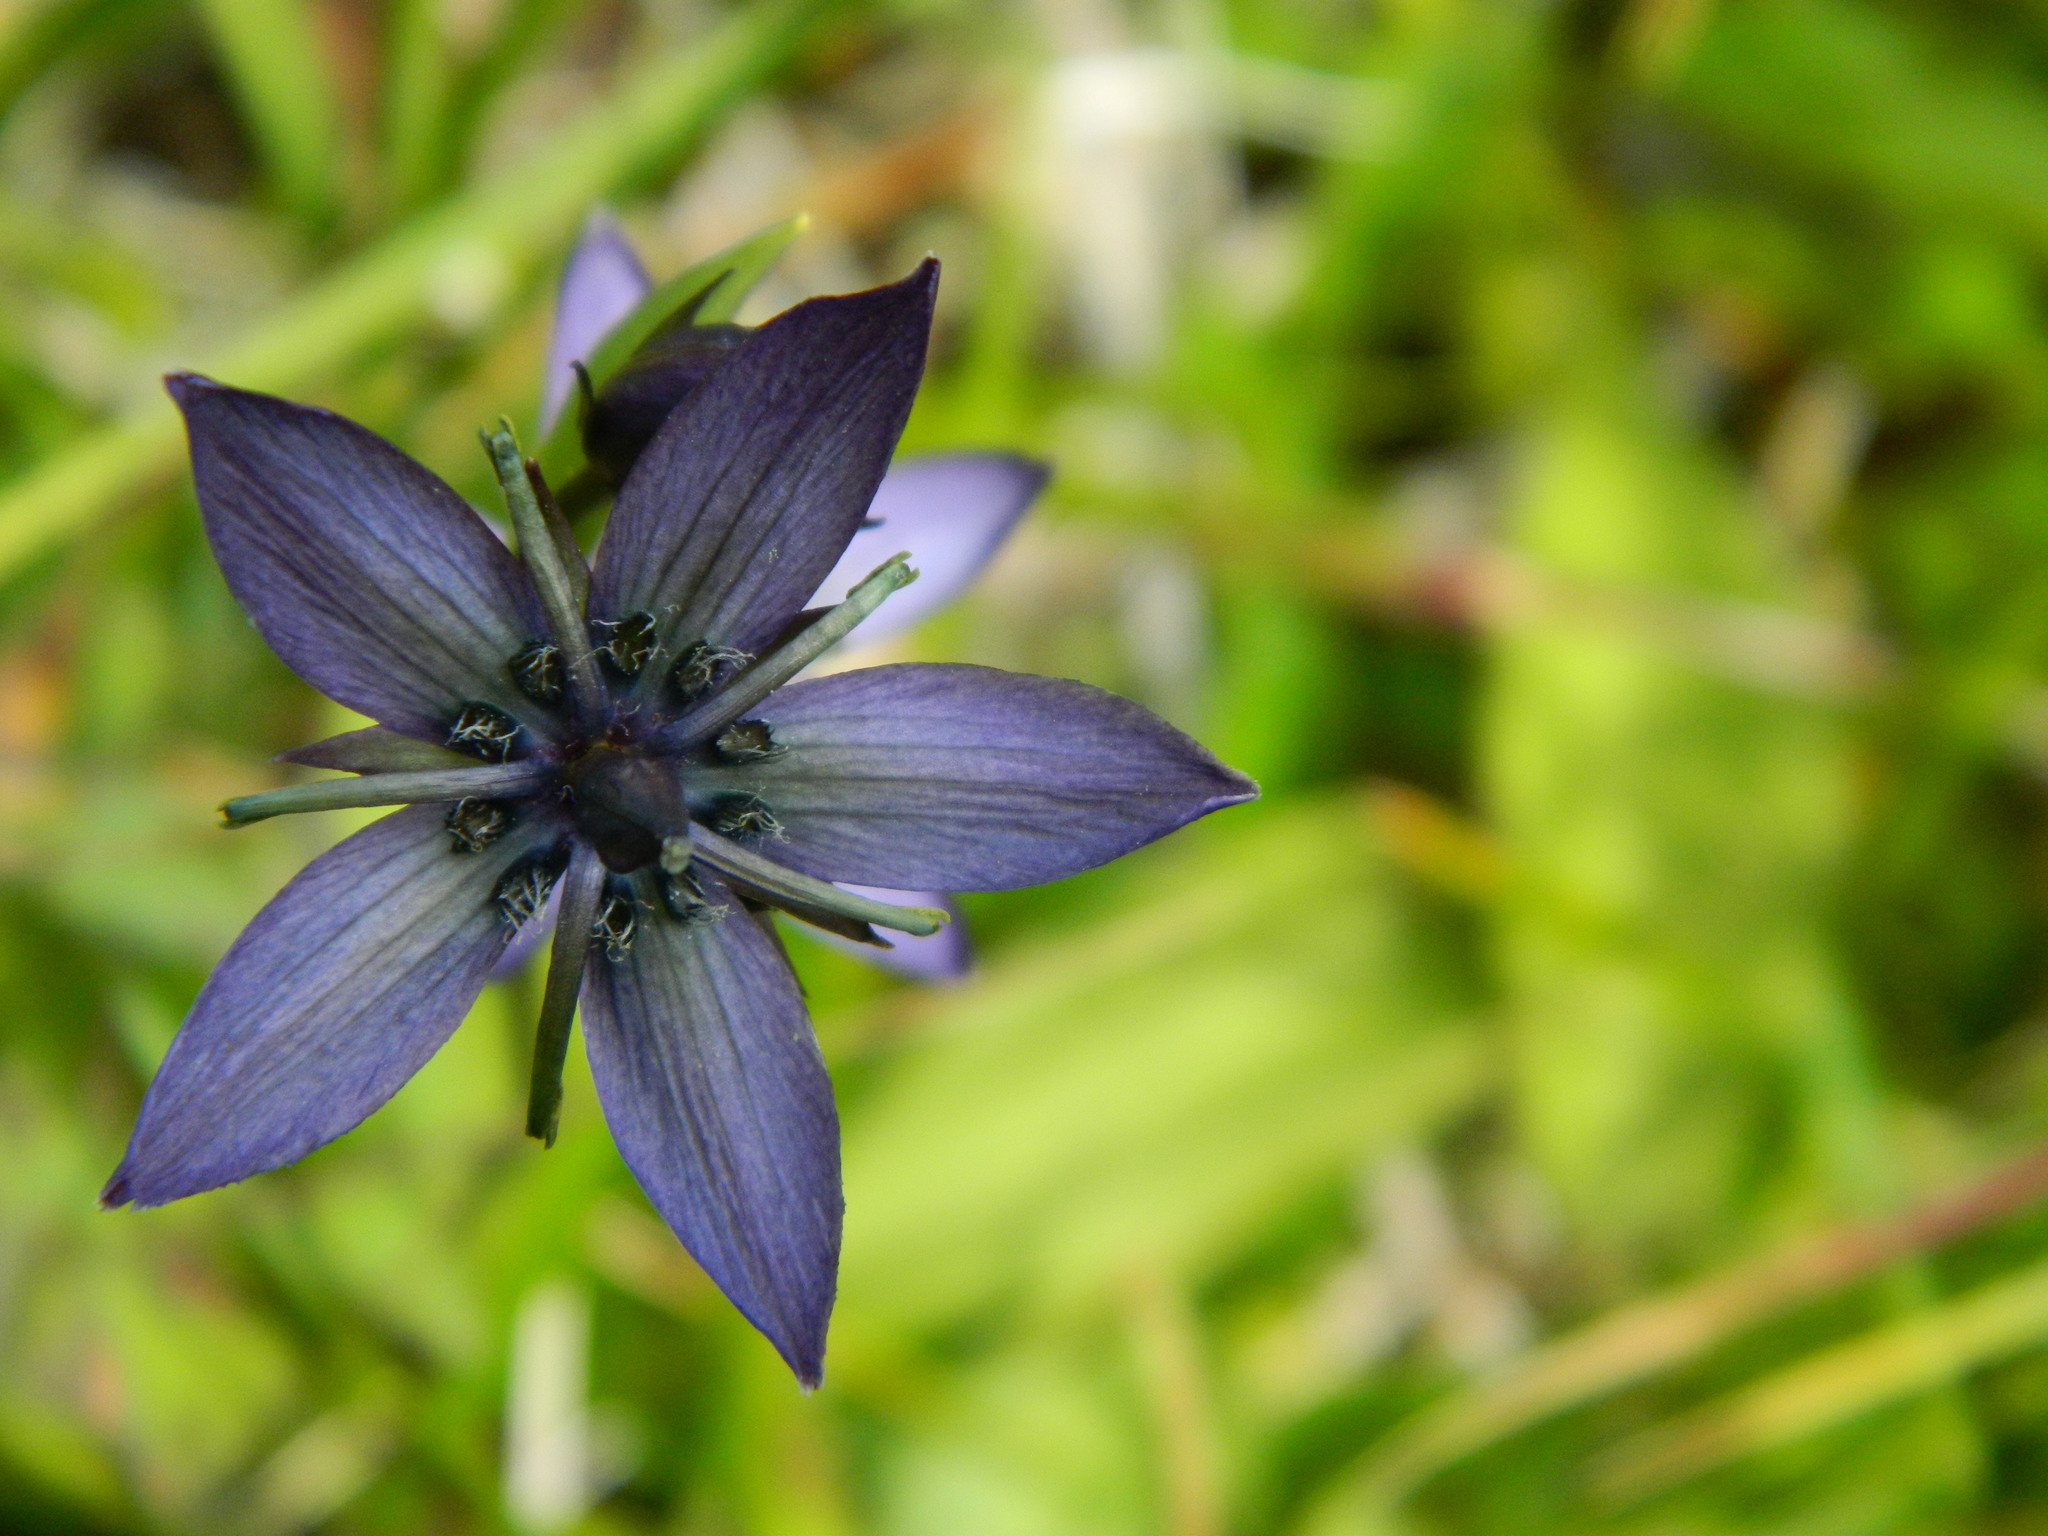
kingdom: Plantae
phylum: Tracheophyta
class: Magnoliopsida
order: Gentianales
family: Gentianaceae
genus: Swertia
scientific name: Swertia obtusa
